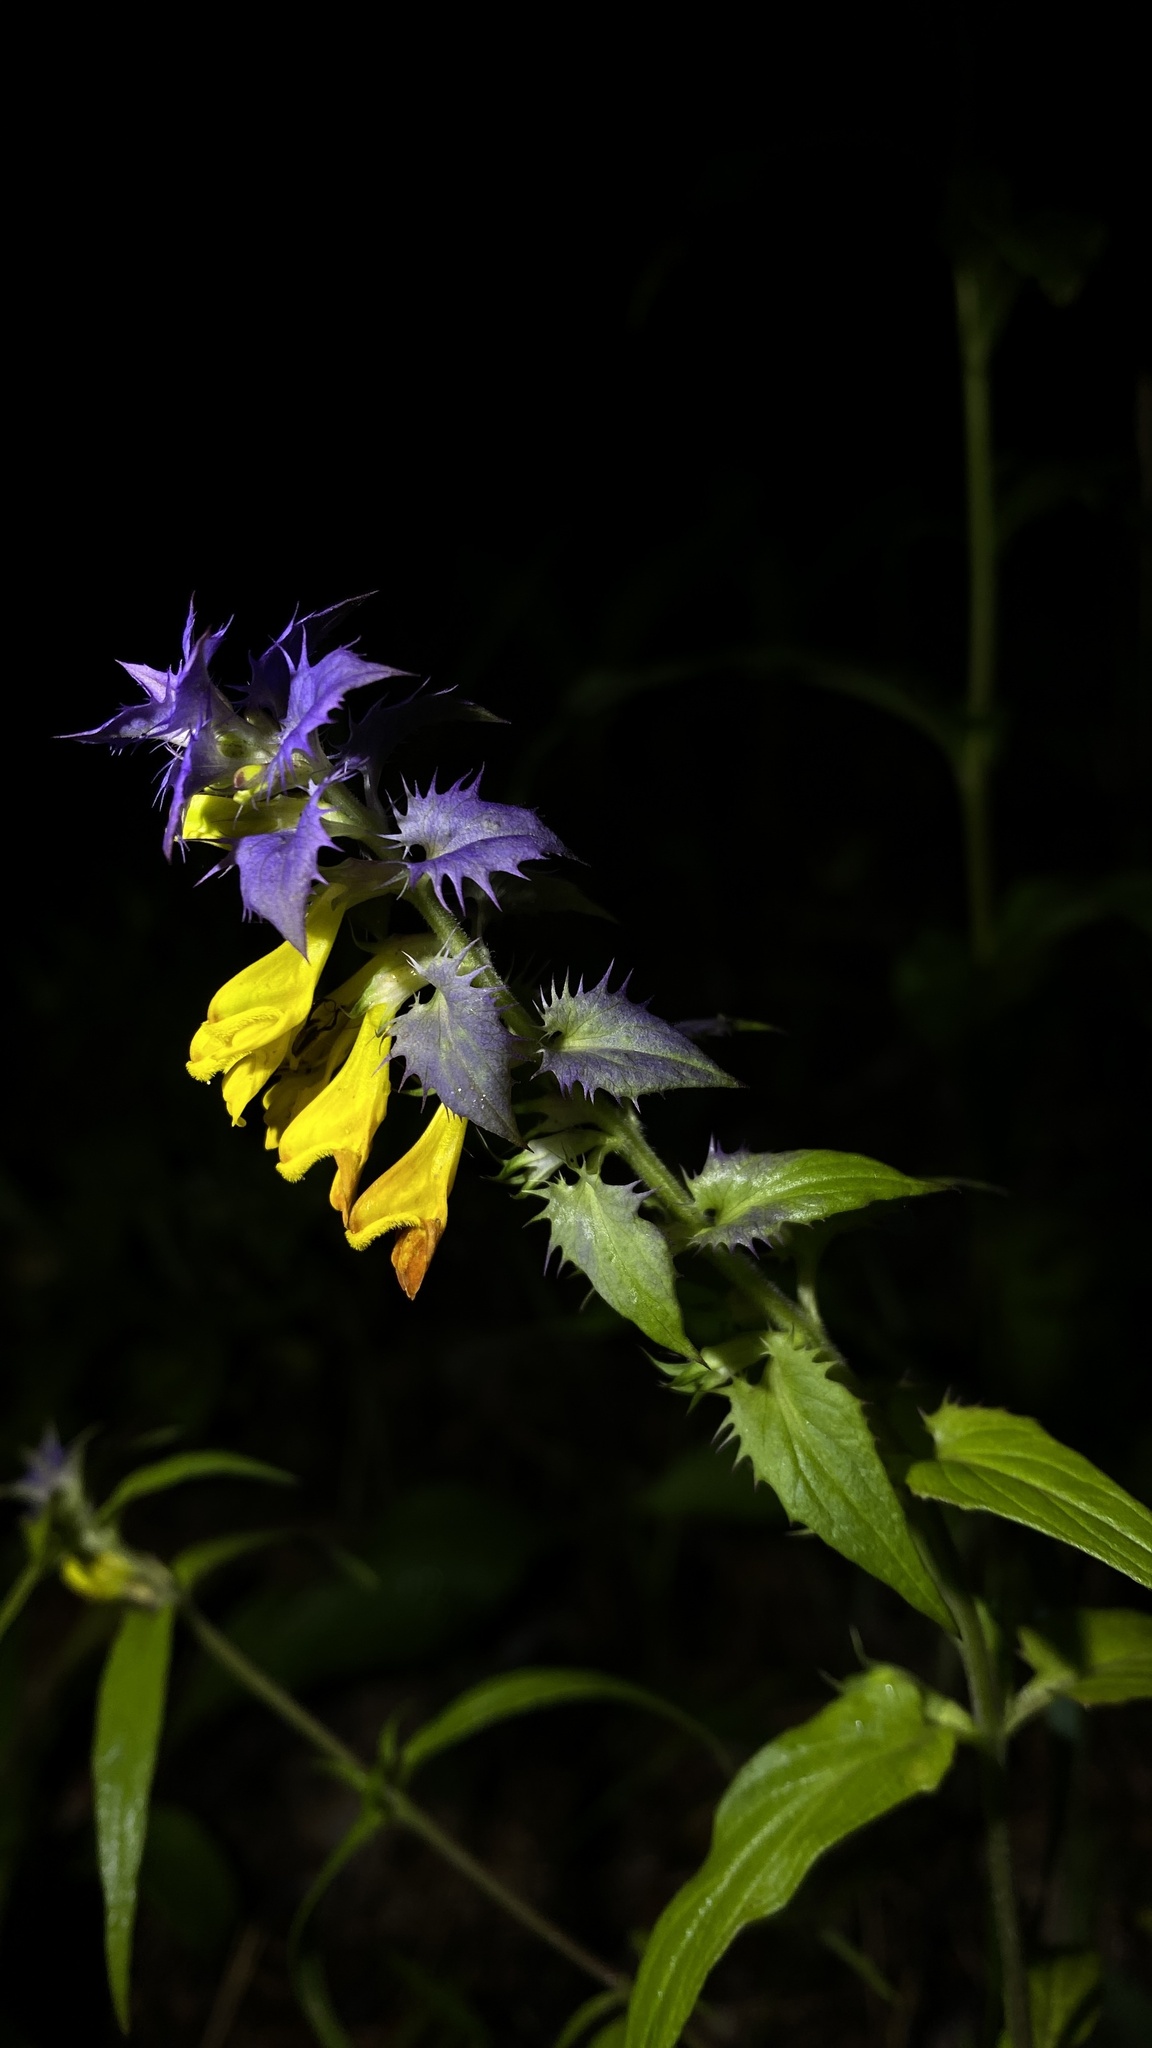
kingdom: Plantae
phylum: Tracheophyta
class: Magnoliopsida
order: Lamiales
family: Orobanchaceae
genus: Melampyrum
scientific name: Melampyrum nemorosum
